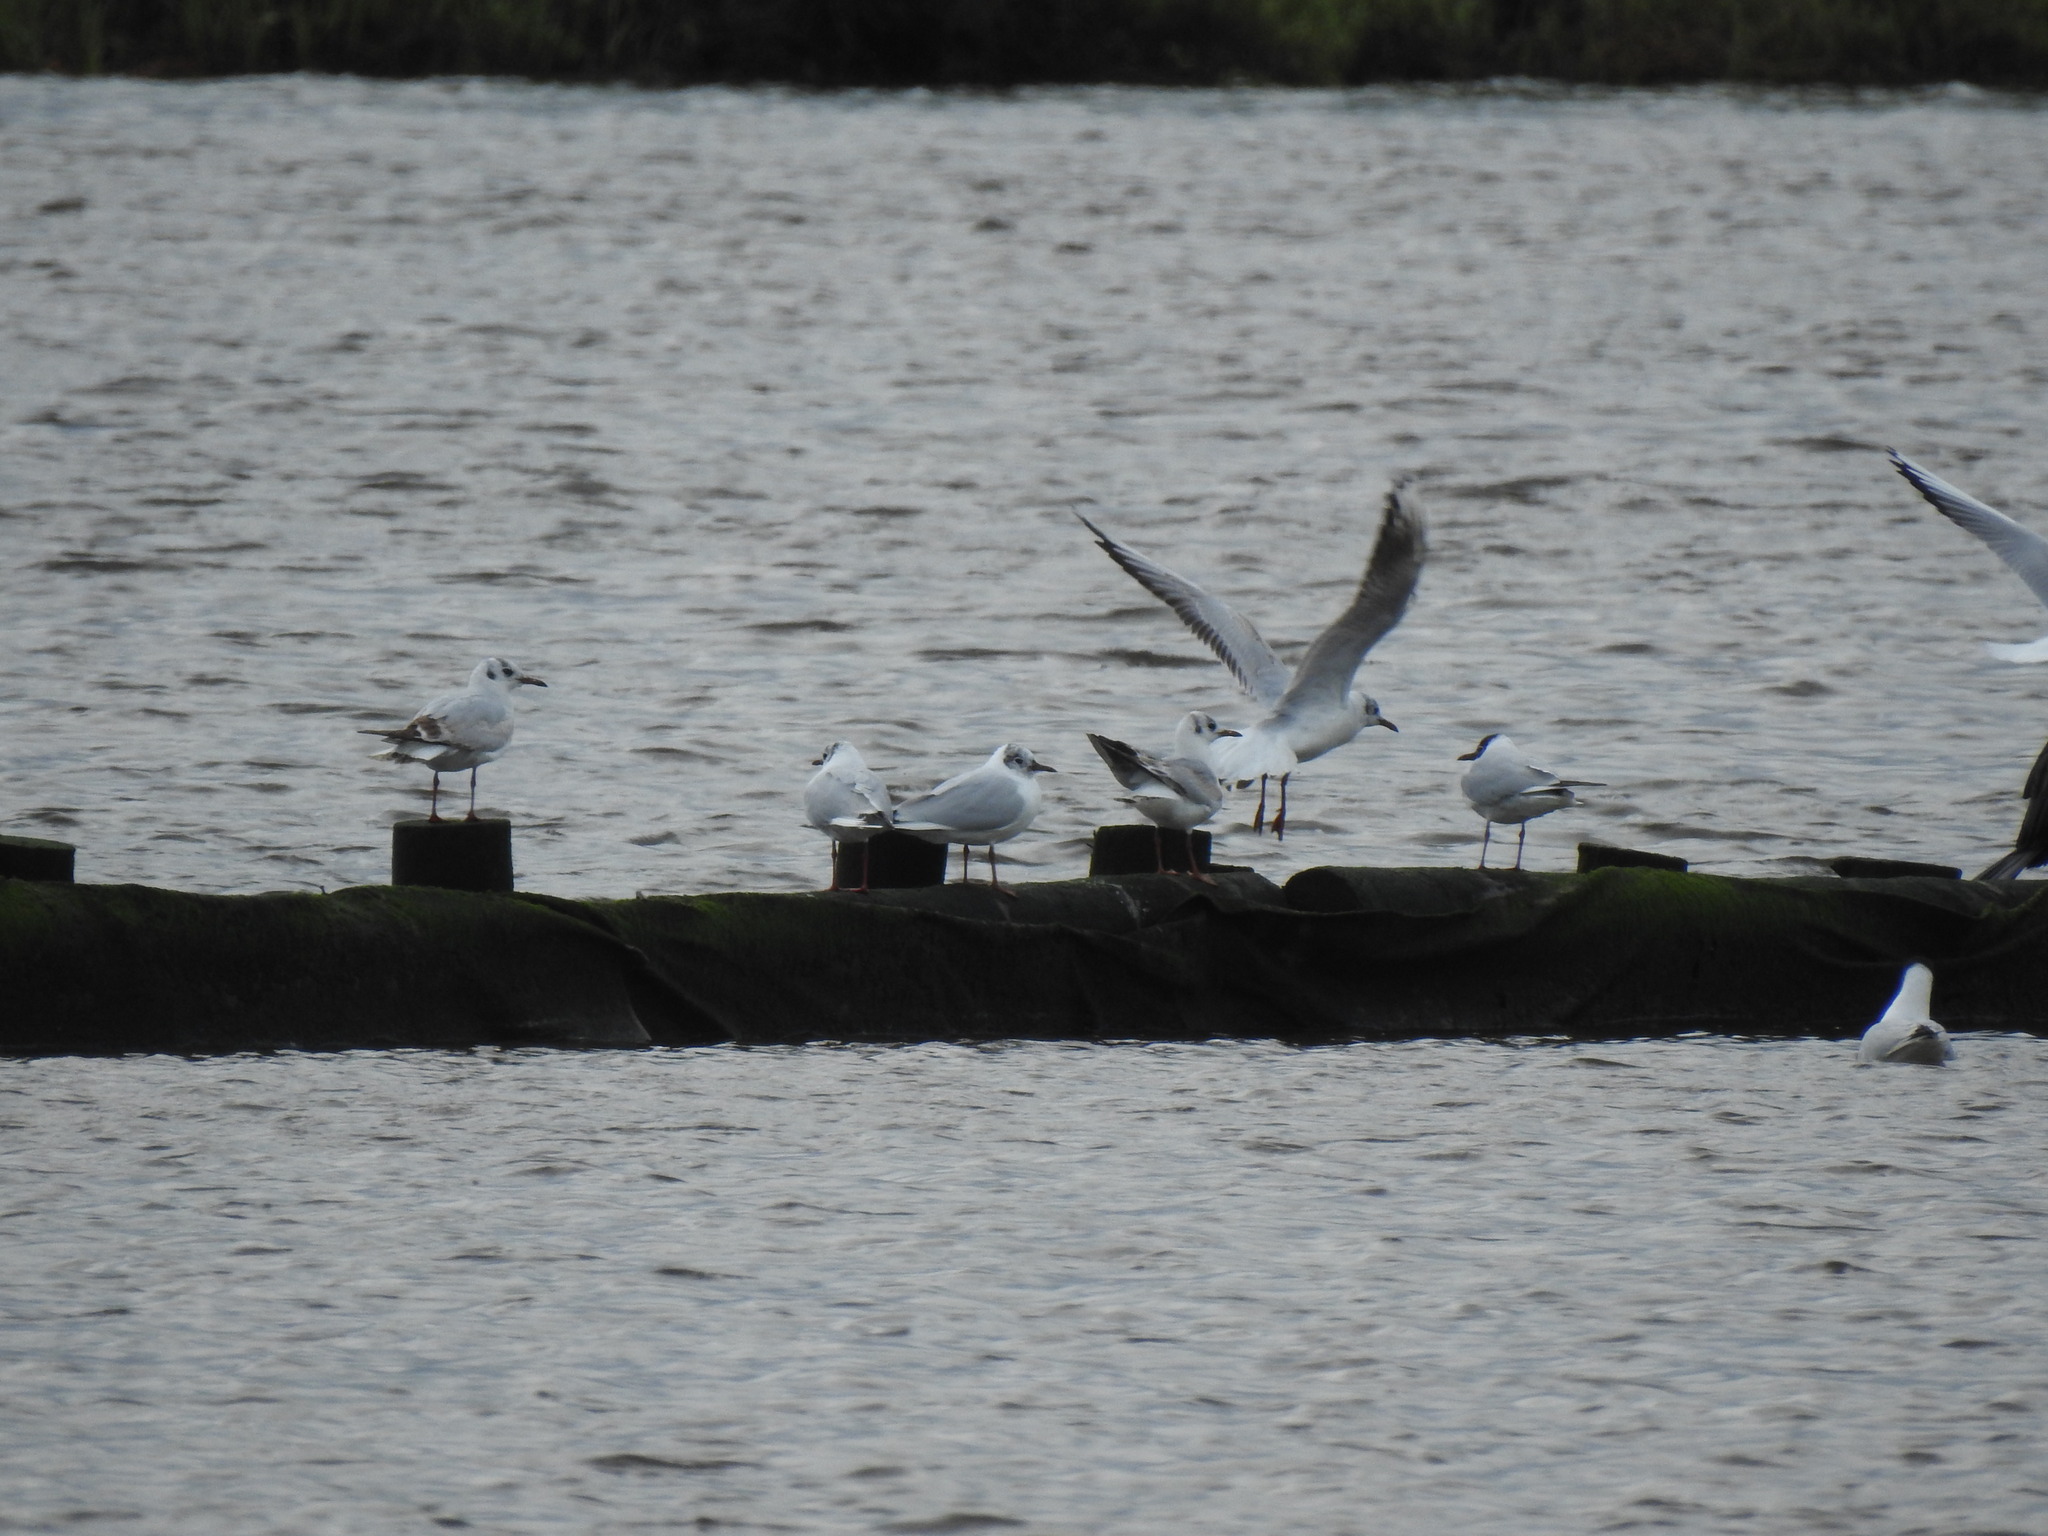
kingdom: Animalia
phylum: Chordata
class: Aves
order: Charadriiformes
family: Laridae
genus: Chroicocephalus
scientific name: Chroicocephalus ridibundus
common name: Black-headed gull
